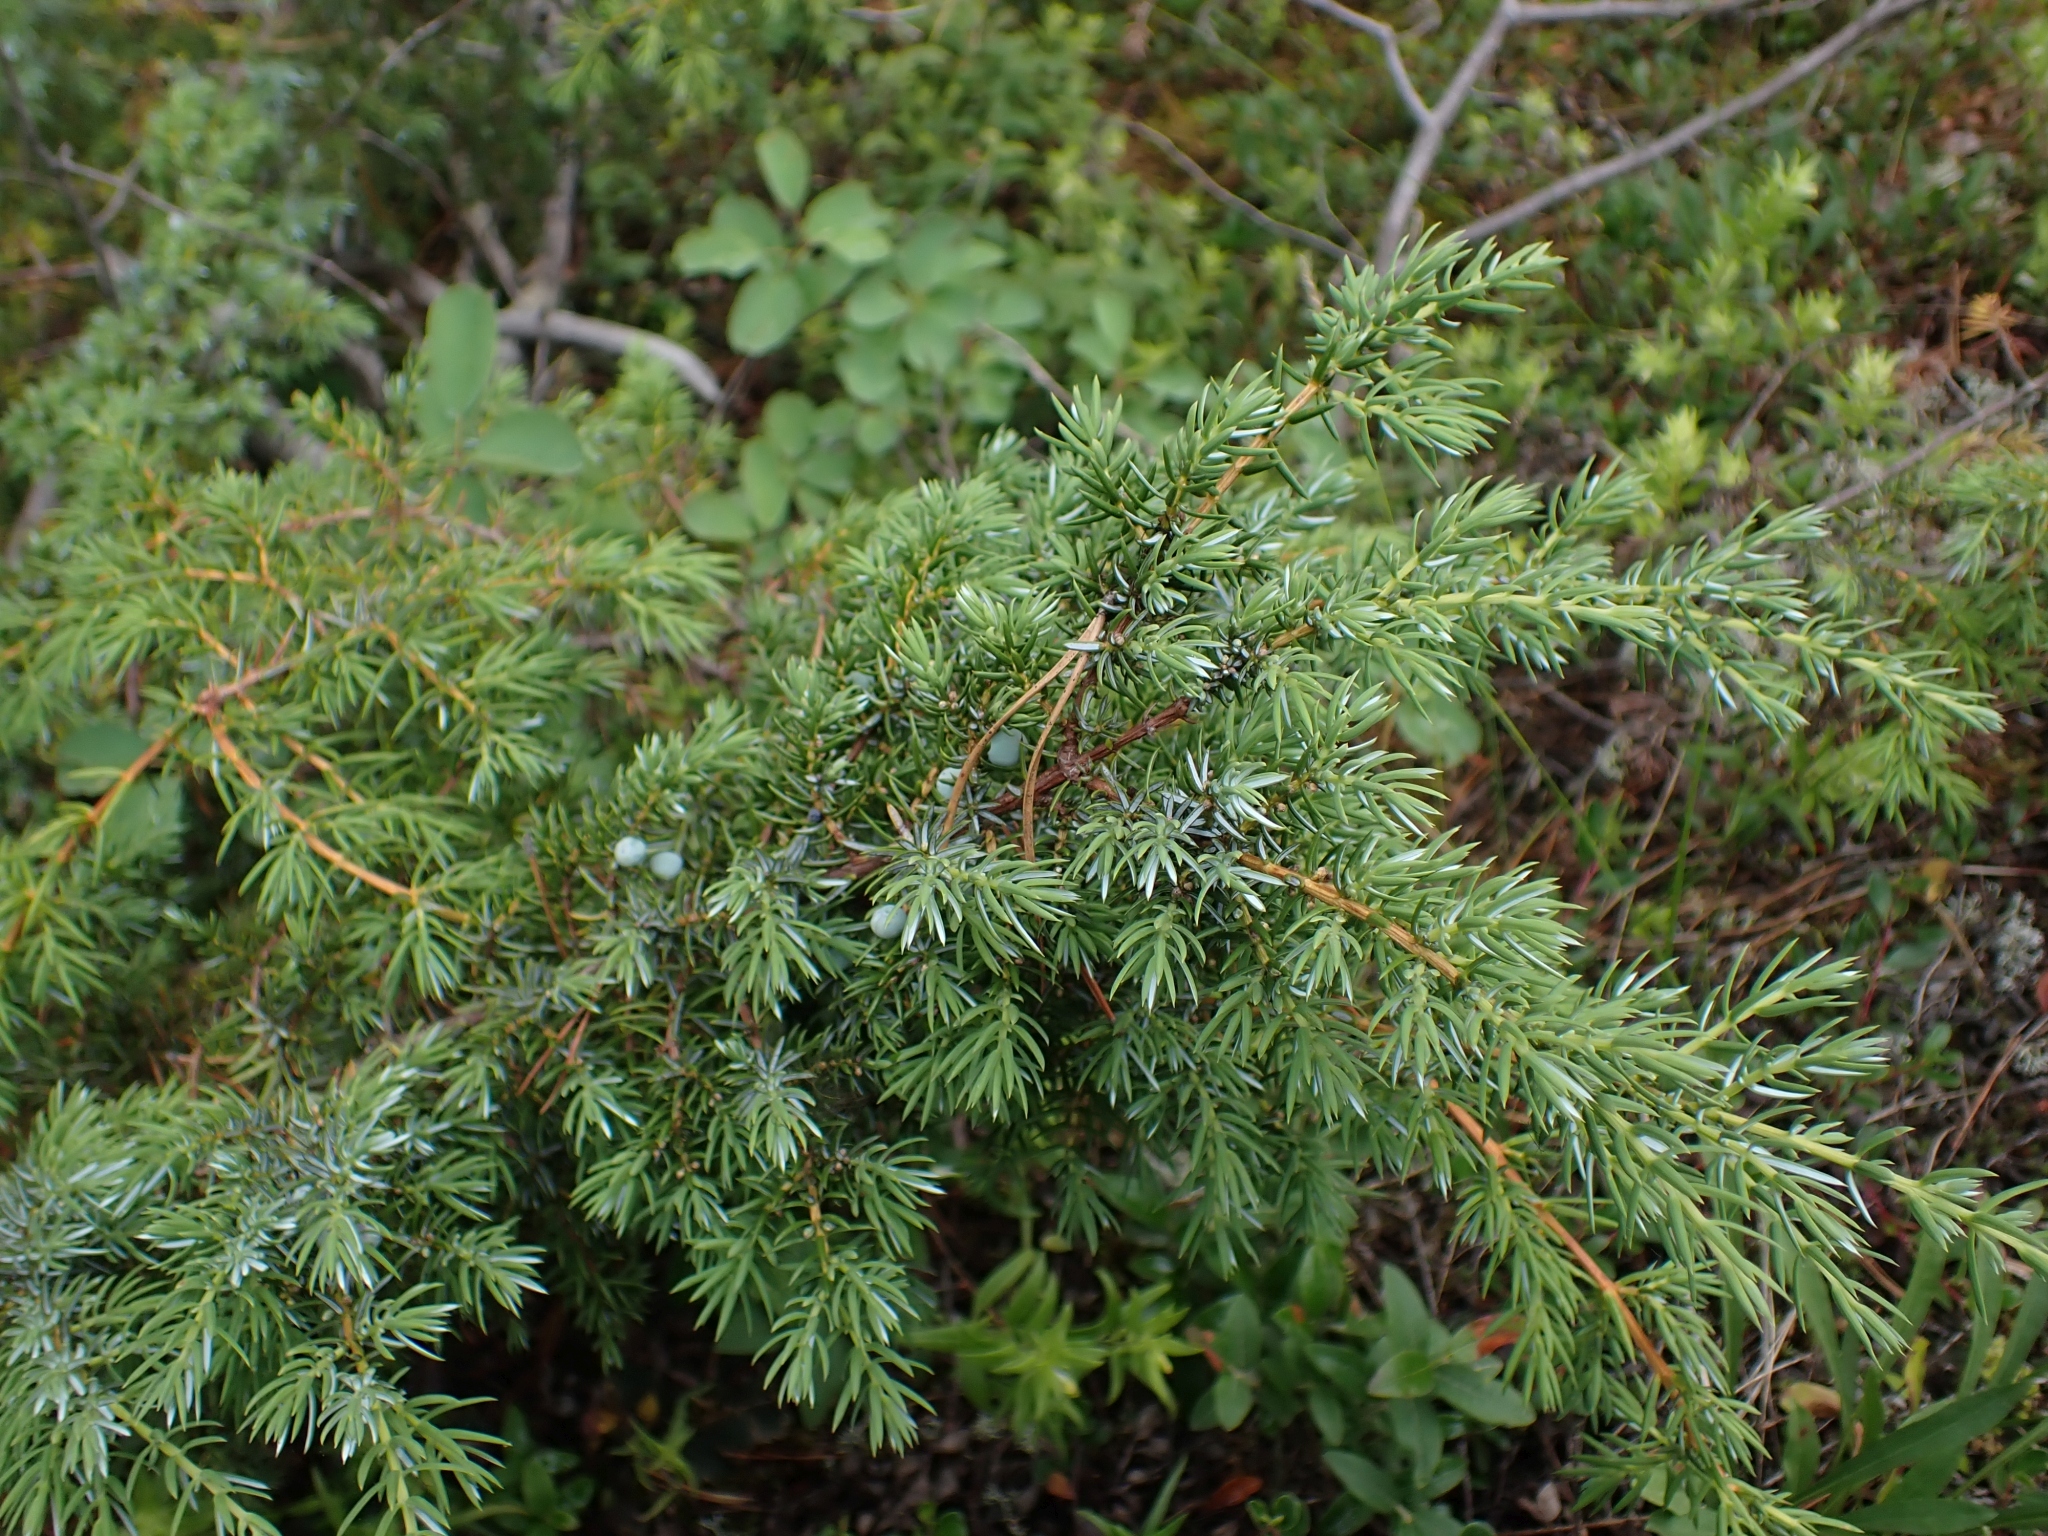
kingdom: Plantae
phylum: Tracheophyta
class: Pinopsida
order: Pinales
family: Cupressaceae
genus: Juniperus
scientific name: Juniperus communis
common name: Common juniper
